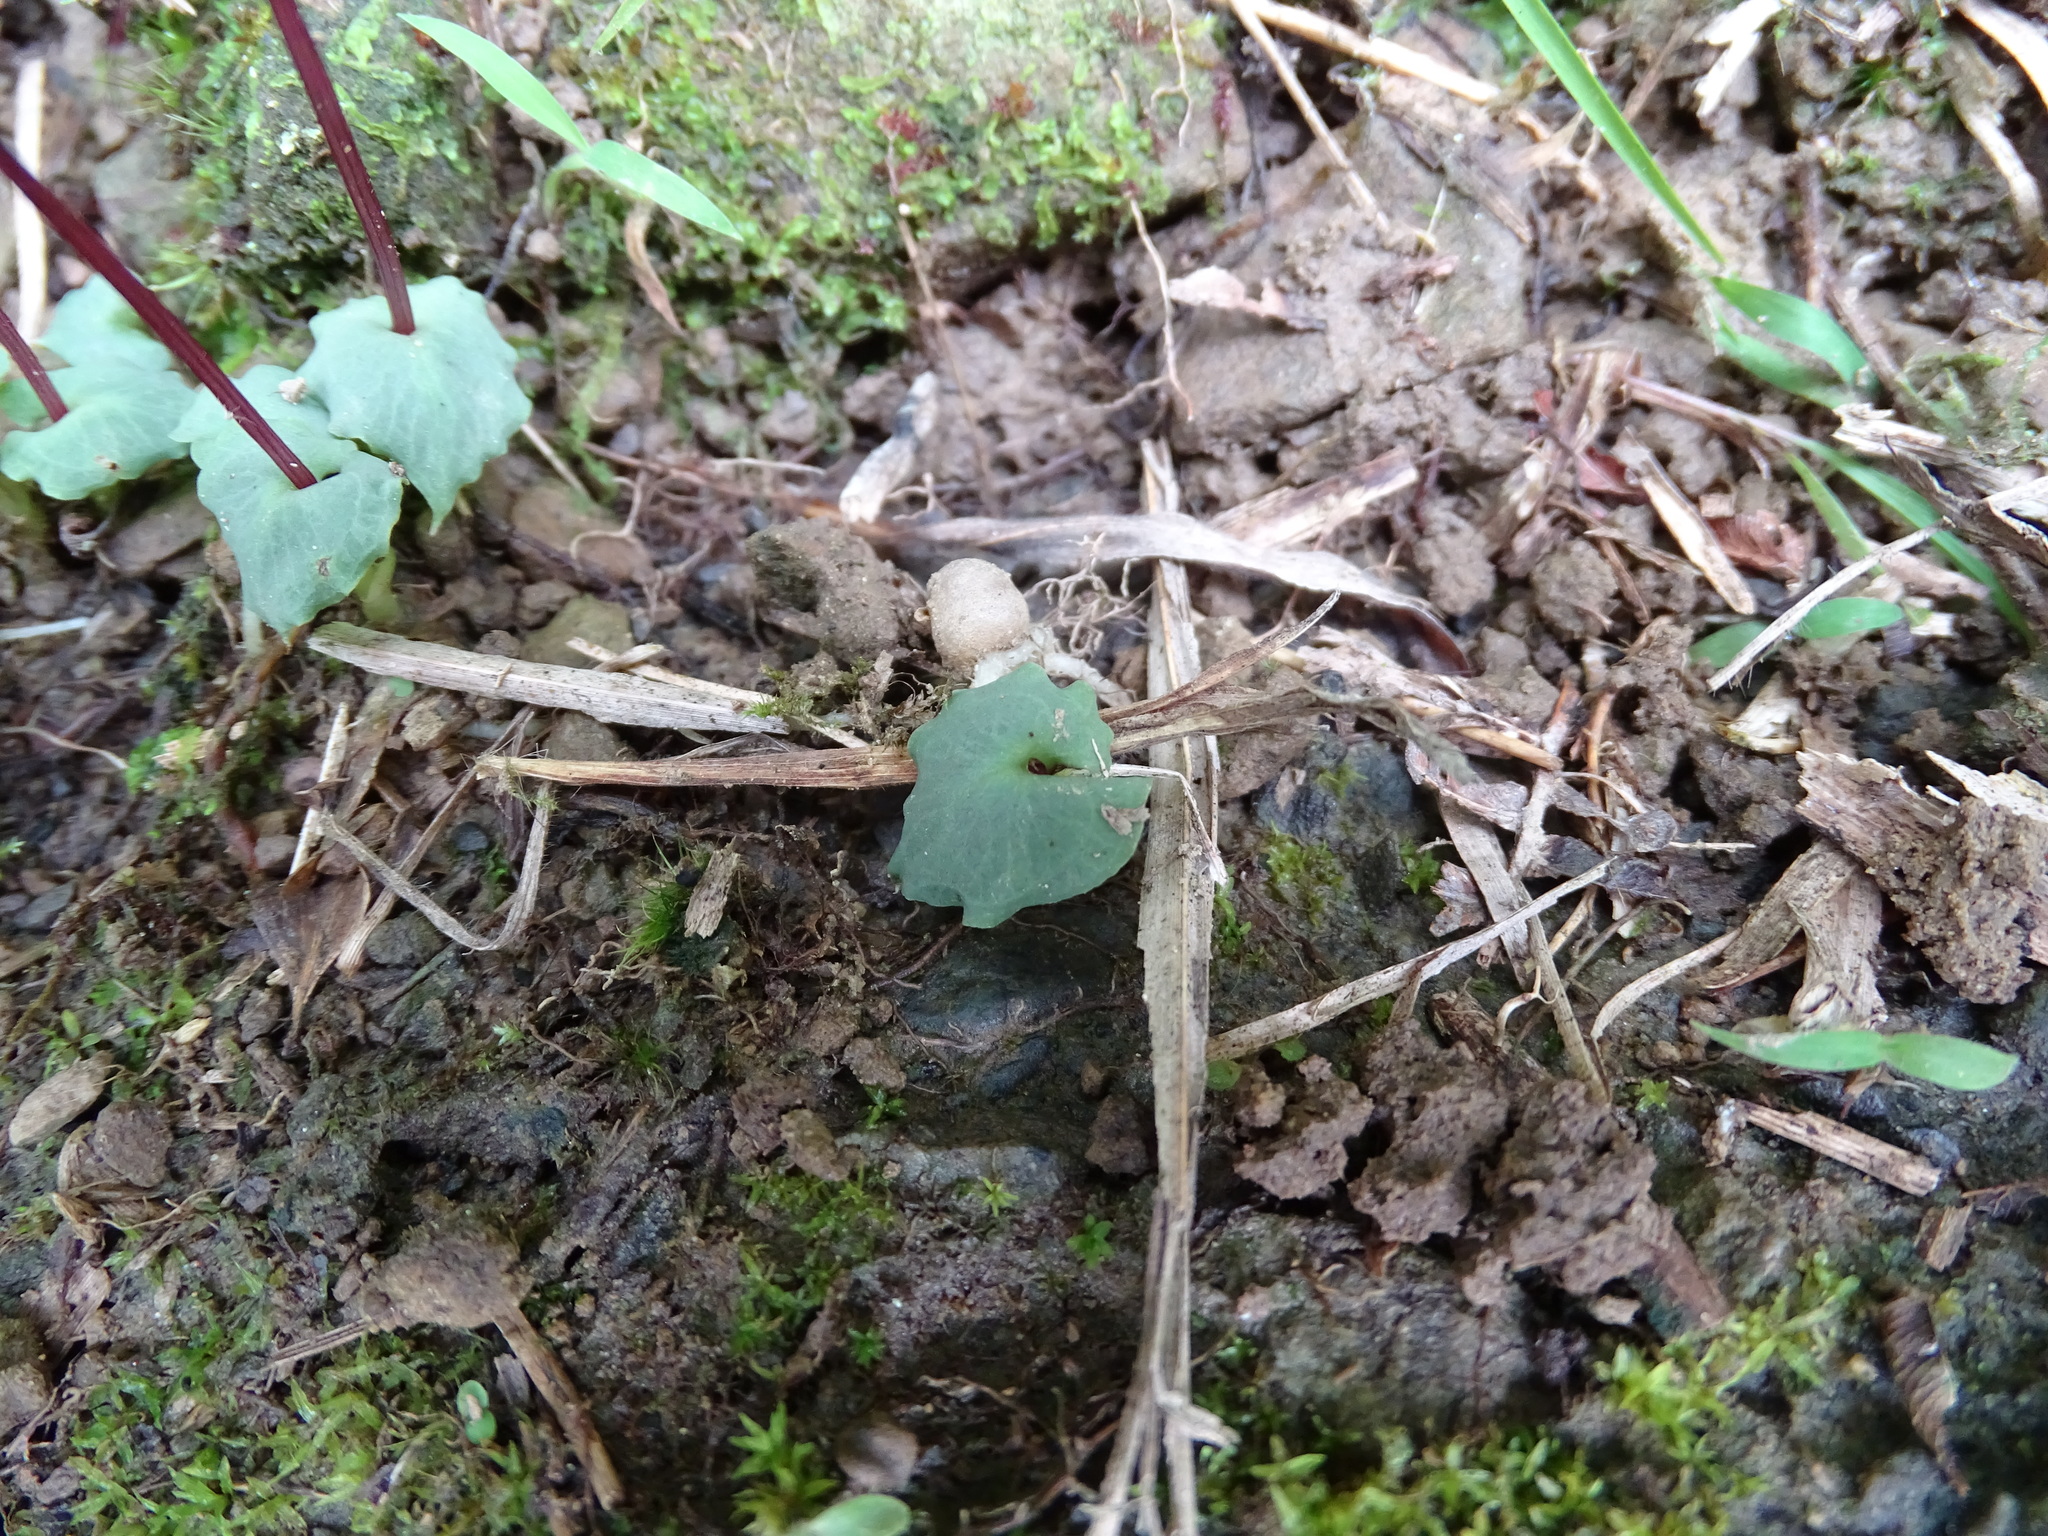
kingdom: Plantae
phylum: Tracheophyta
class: Liliopsida
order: Asparagales
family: Orchidaceae
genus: Corybas
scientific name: Corybas puniceus
